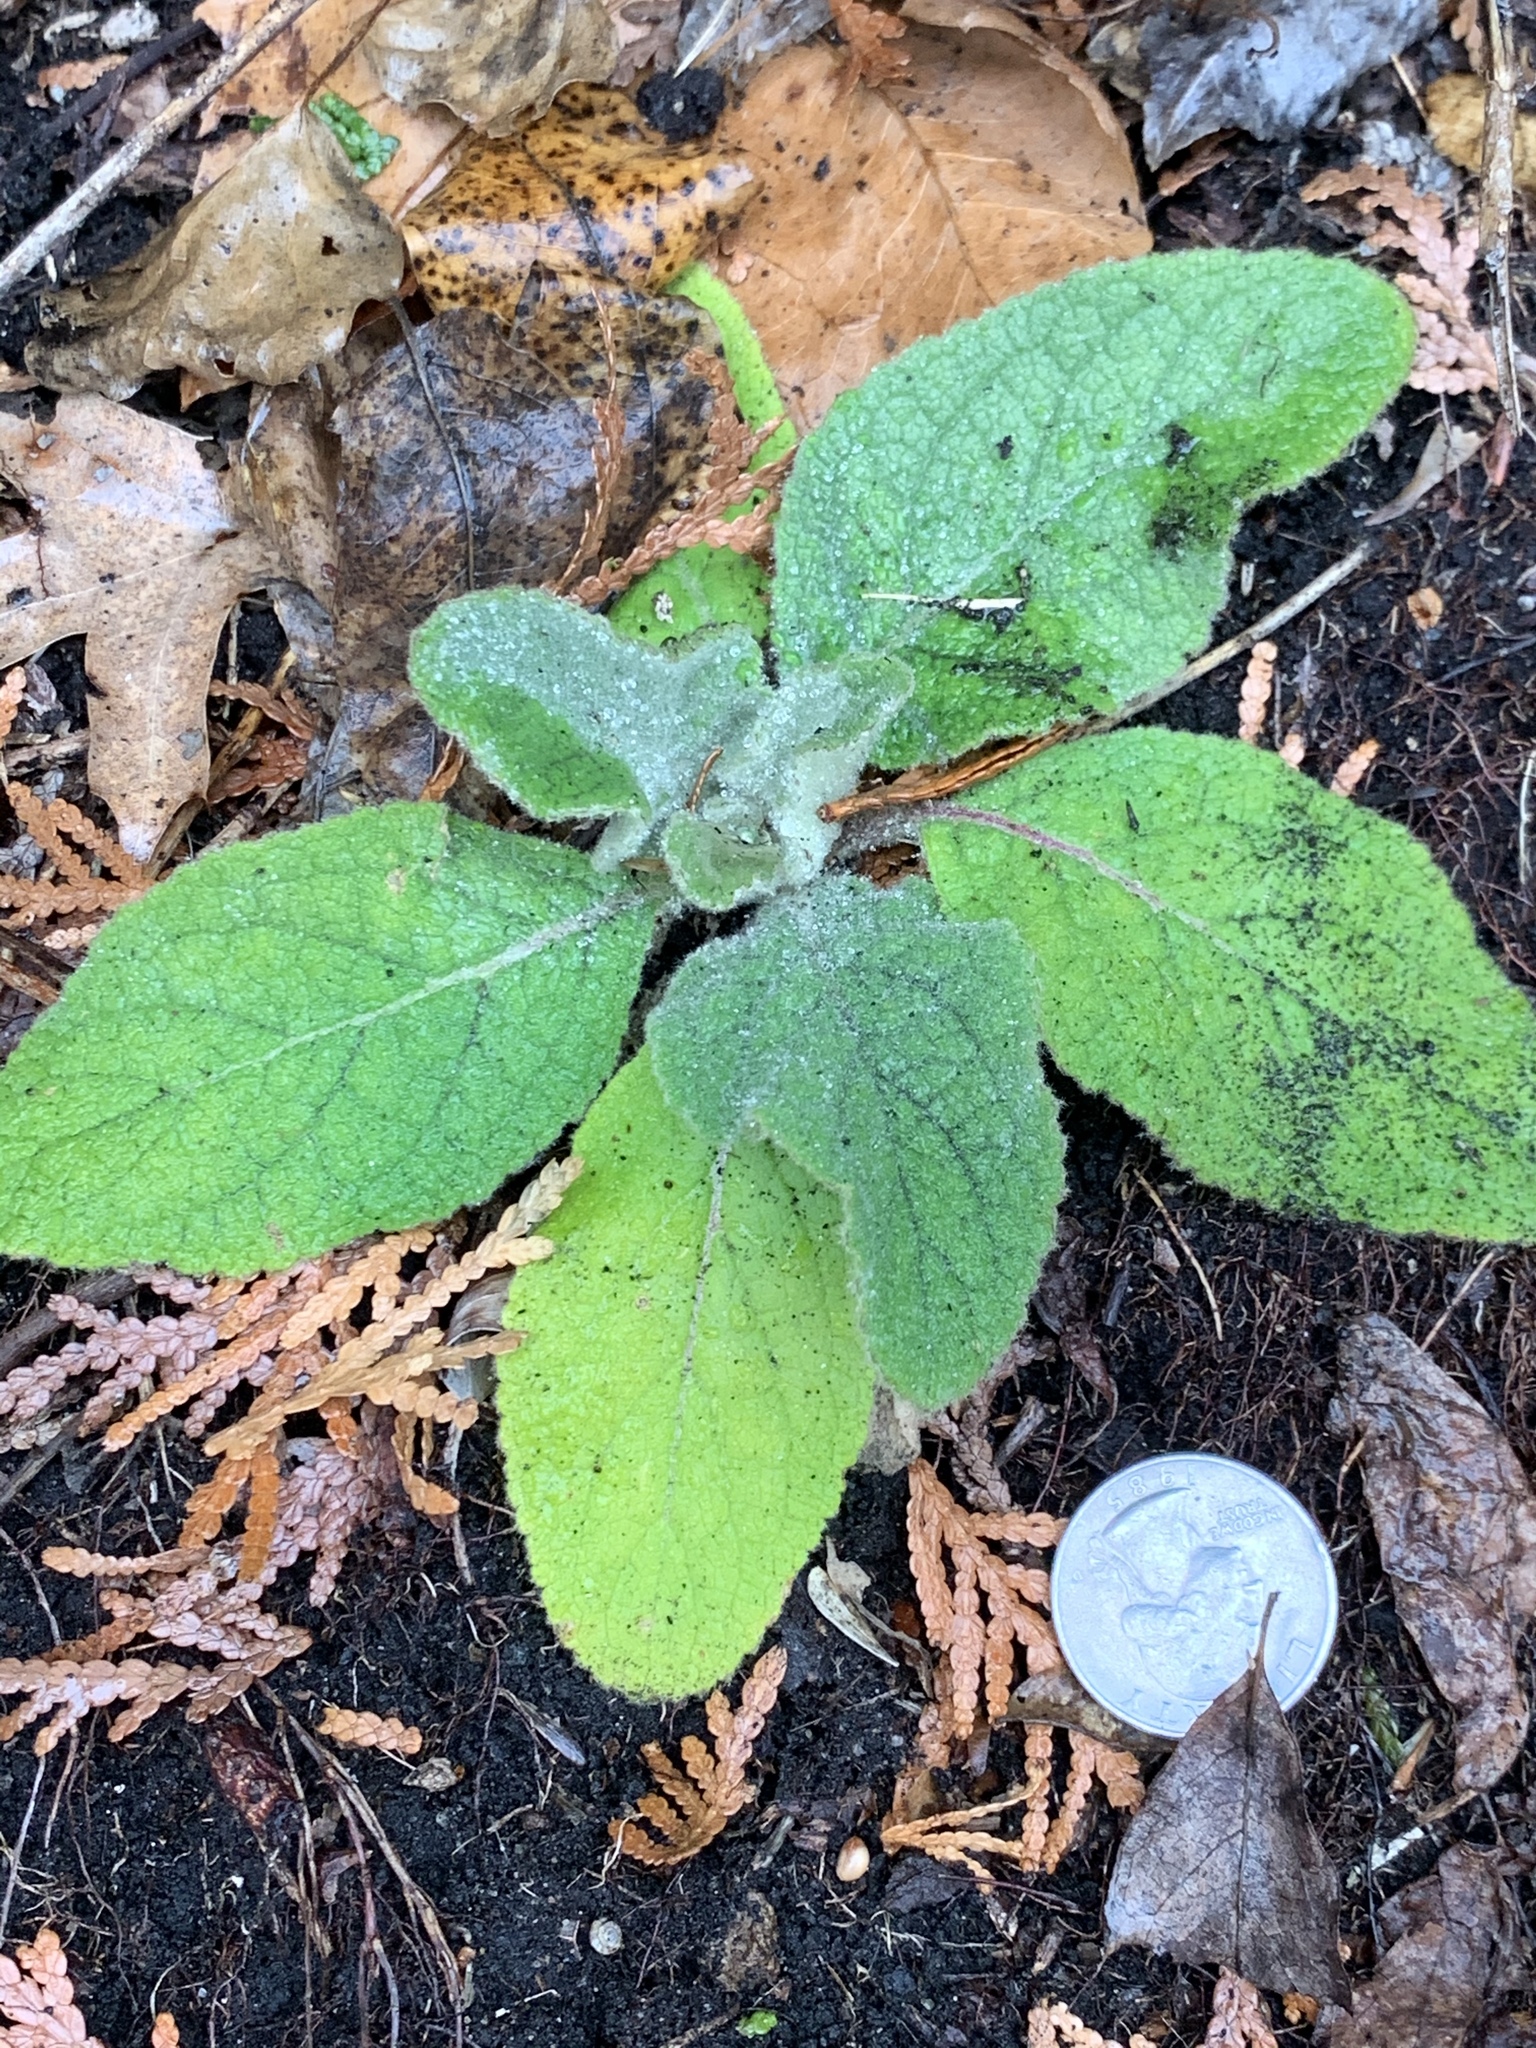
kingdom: Plantae
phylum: Tracheophyta
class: Magnoliopsida
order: Lamiales
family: Scrophulariaceae
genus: Verbascum
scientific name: Verbascum thapsus
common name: Common mullein
